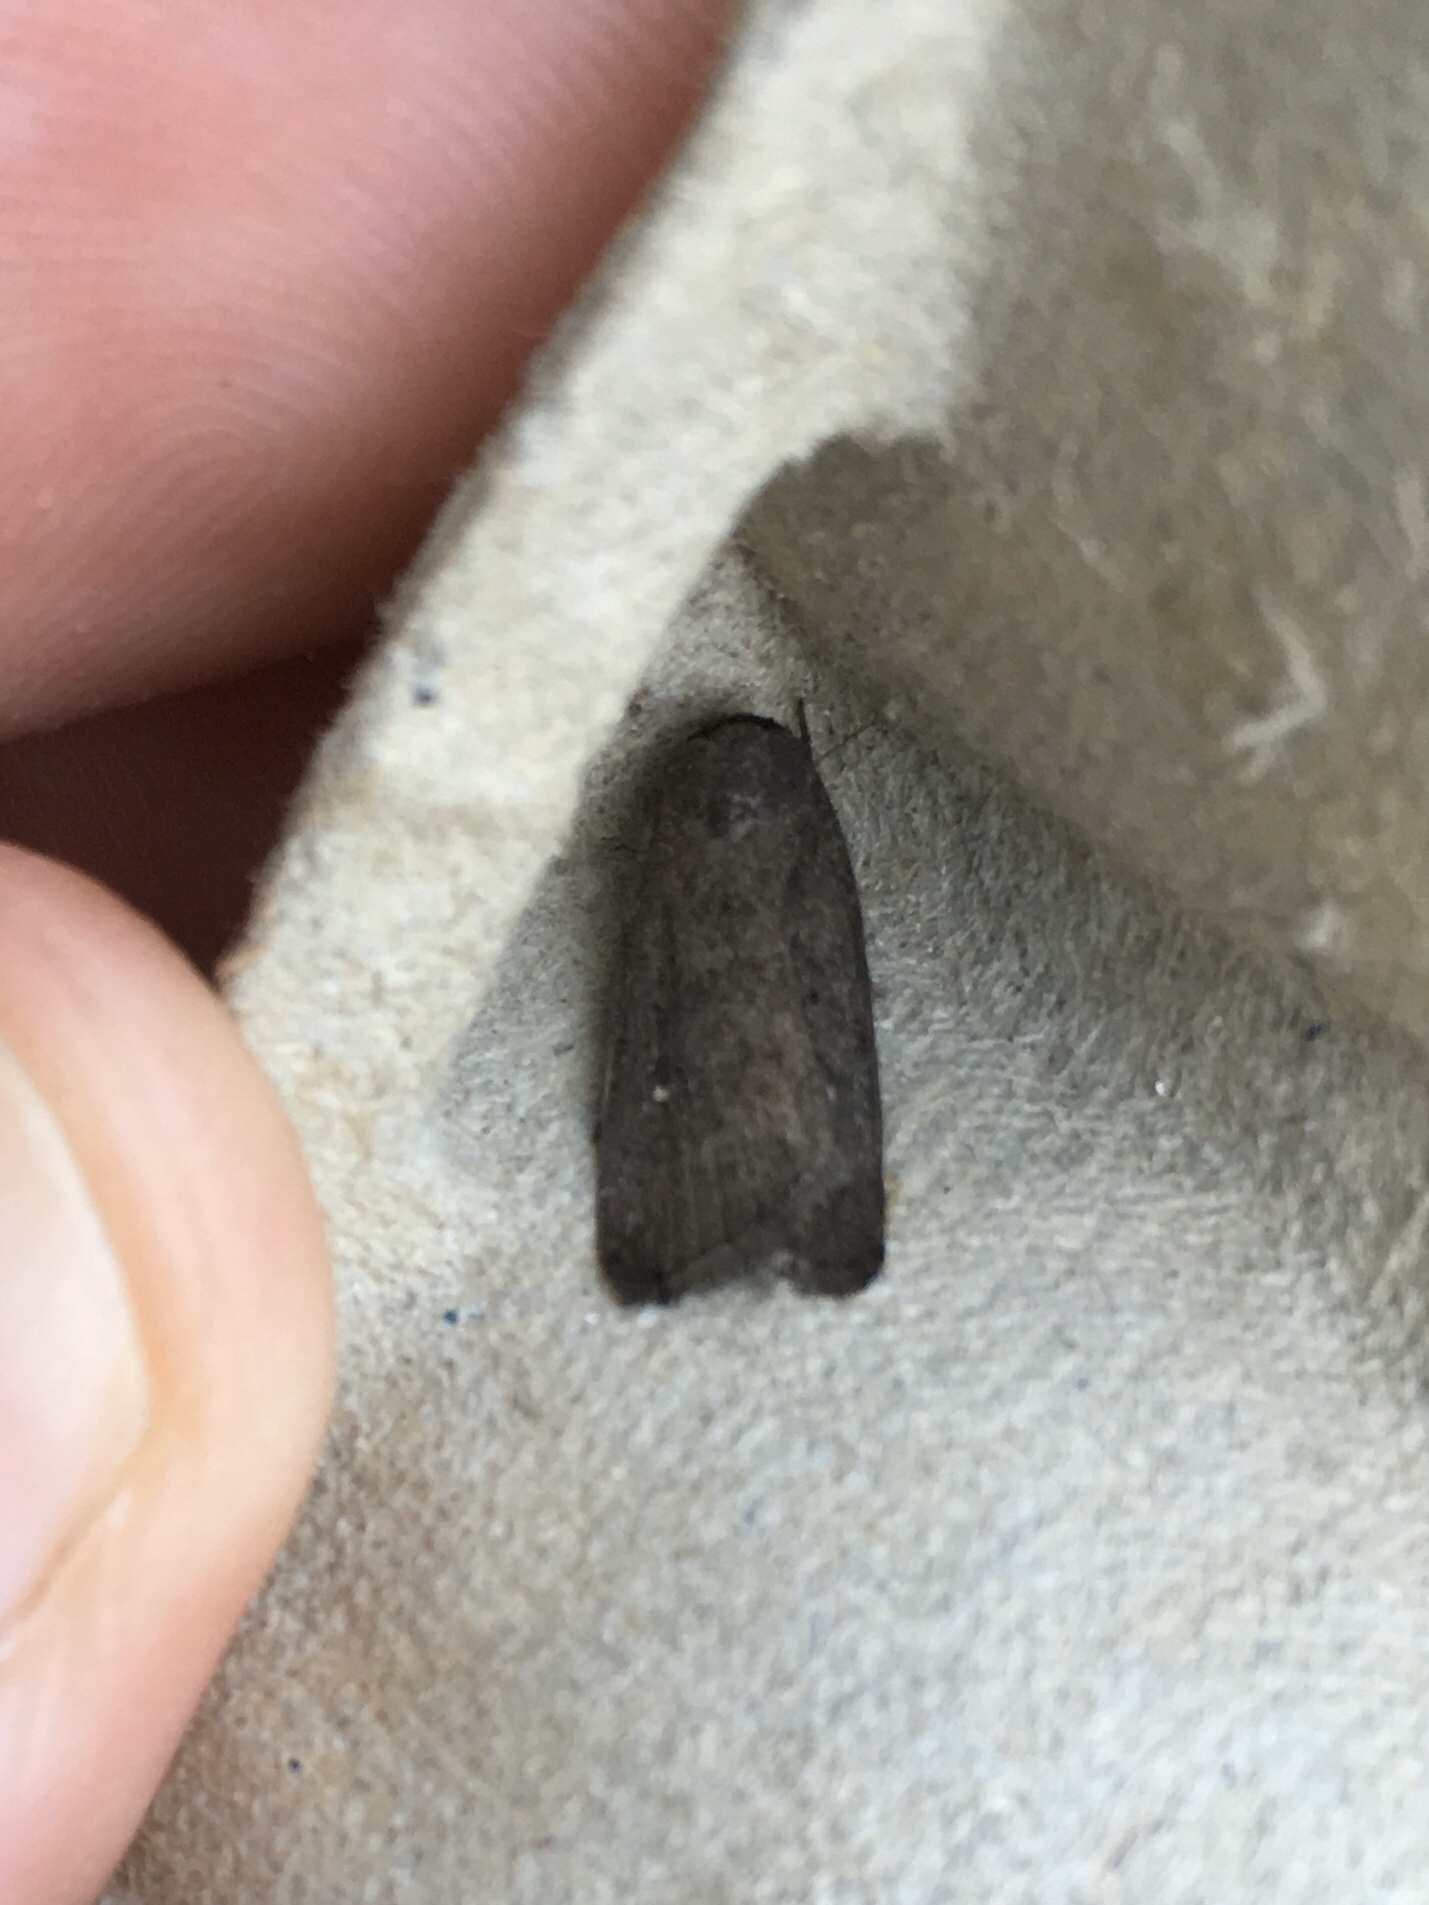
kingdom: Animalia
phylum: Arthropoda
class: Insecta
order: Lepidoptera
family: Noctuidae
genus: Proxenus
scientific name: Proxenus miranda
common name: Miranda moth
